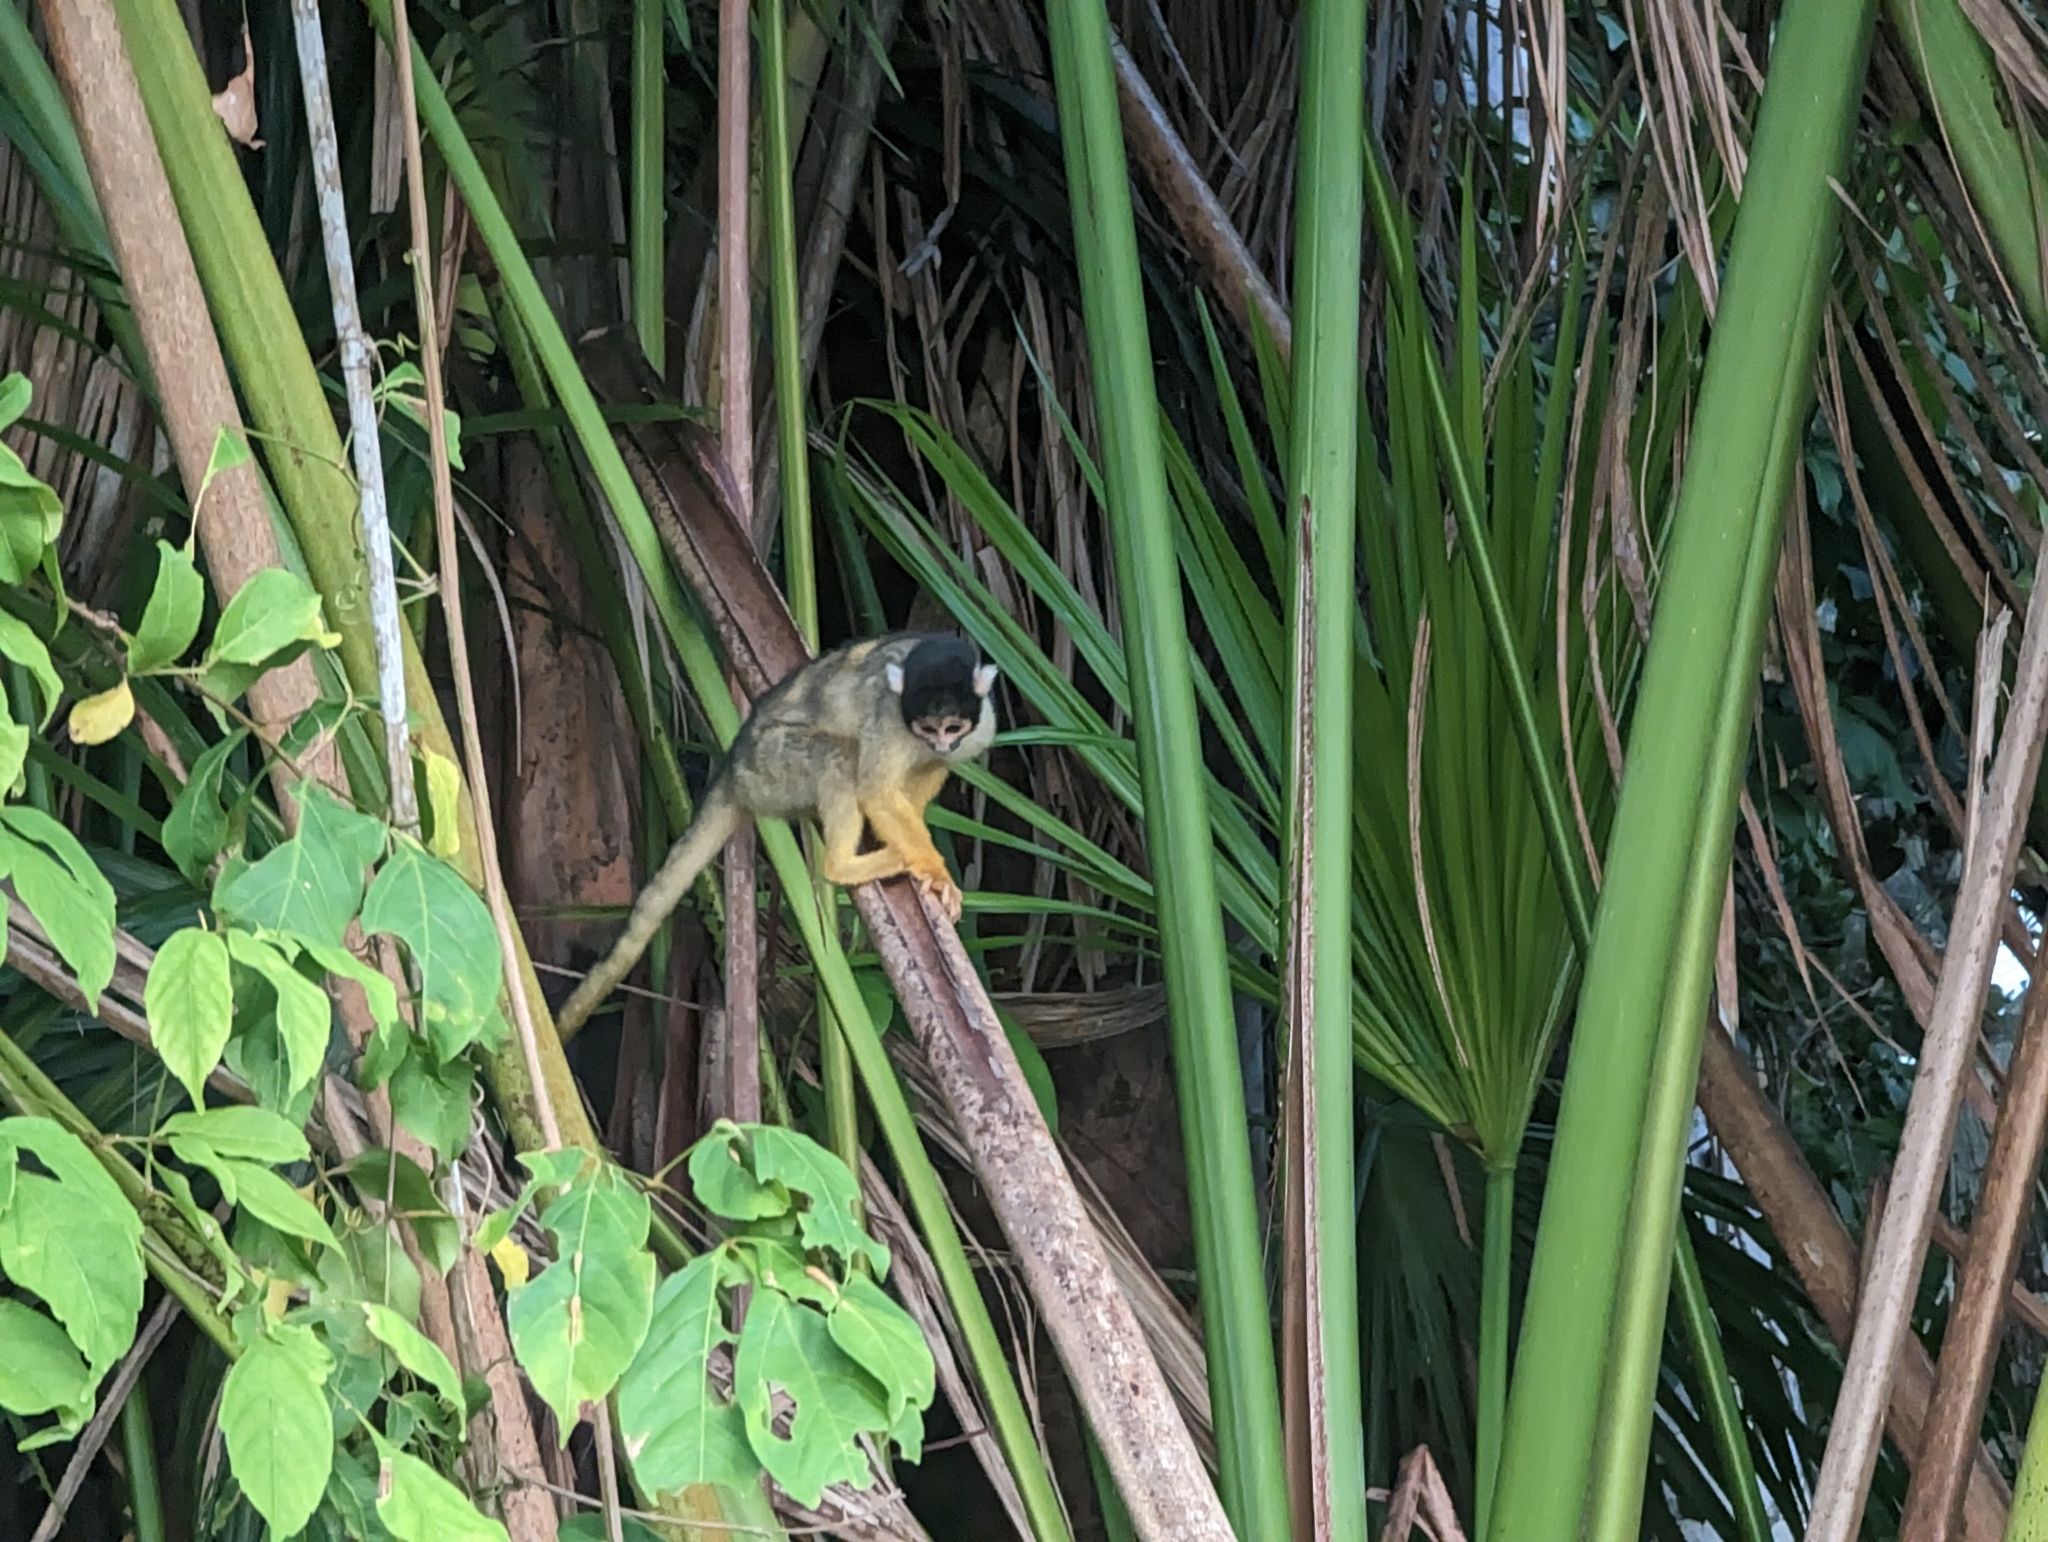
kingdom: Animalia
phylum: Chordata
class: Mammalia
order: Primates
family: Cebidae
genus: Saimiri
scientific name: Saimiri boliviensis
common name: Black-capped squirrel monkey
